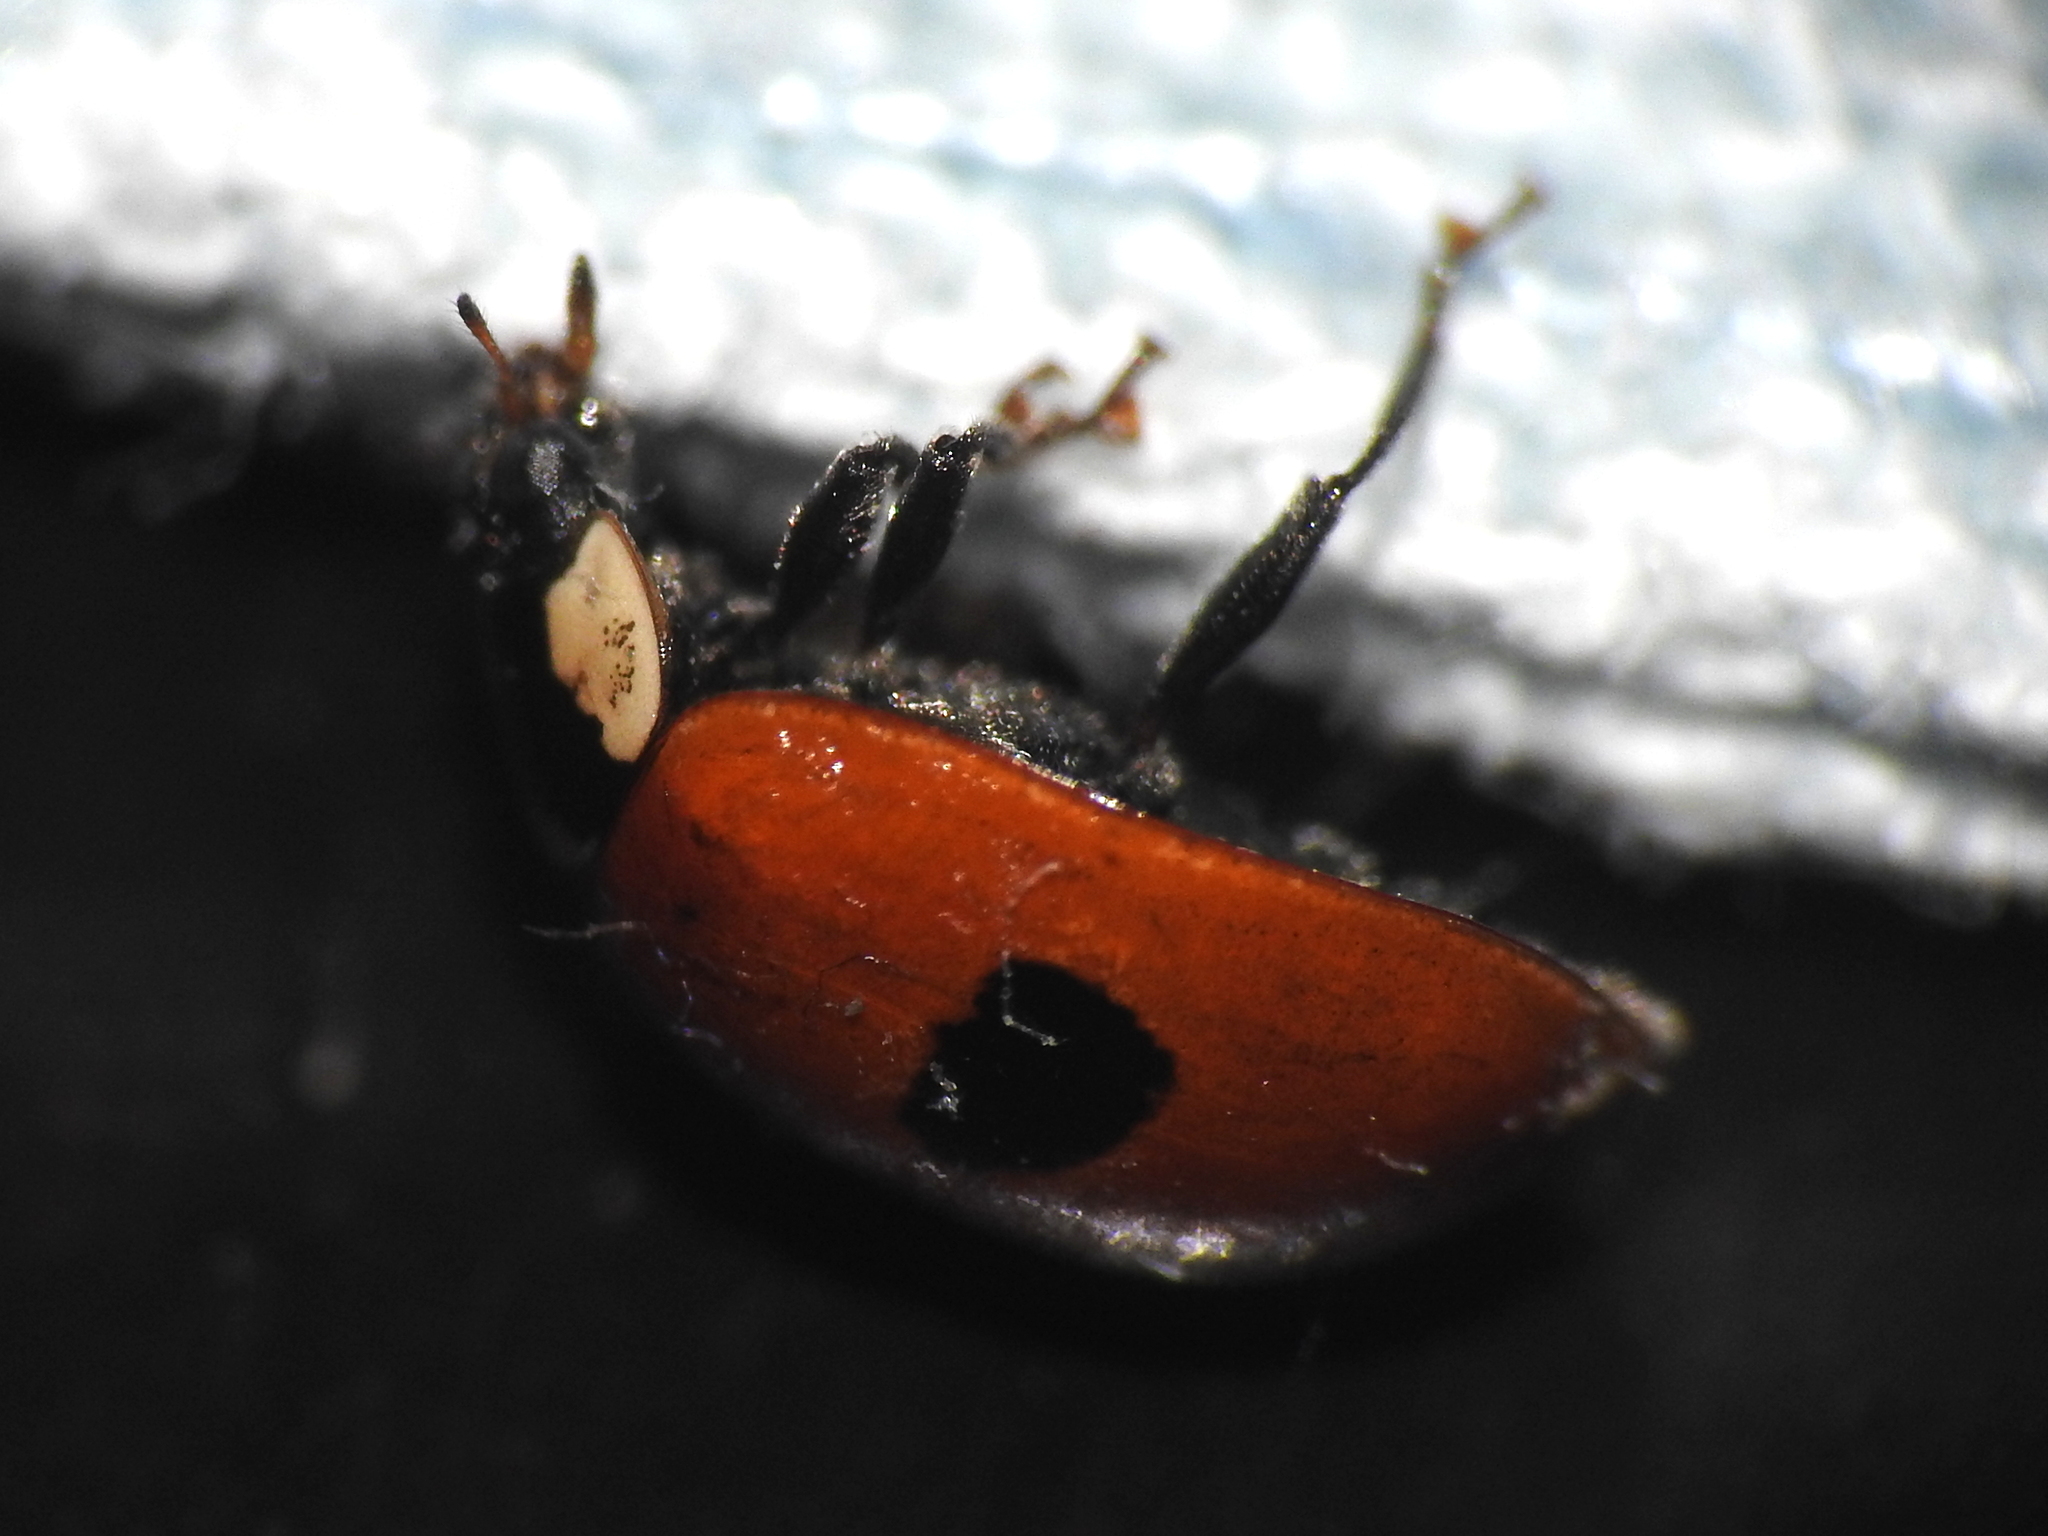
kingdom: Animalia
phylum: Arthropoda
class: Insecta
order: Coleoptera
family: Coccinellidae
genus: Adalia
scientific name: Adalia bipunctata
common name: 2-spot ladybird
